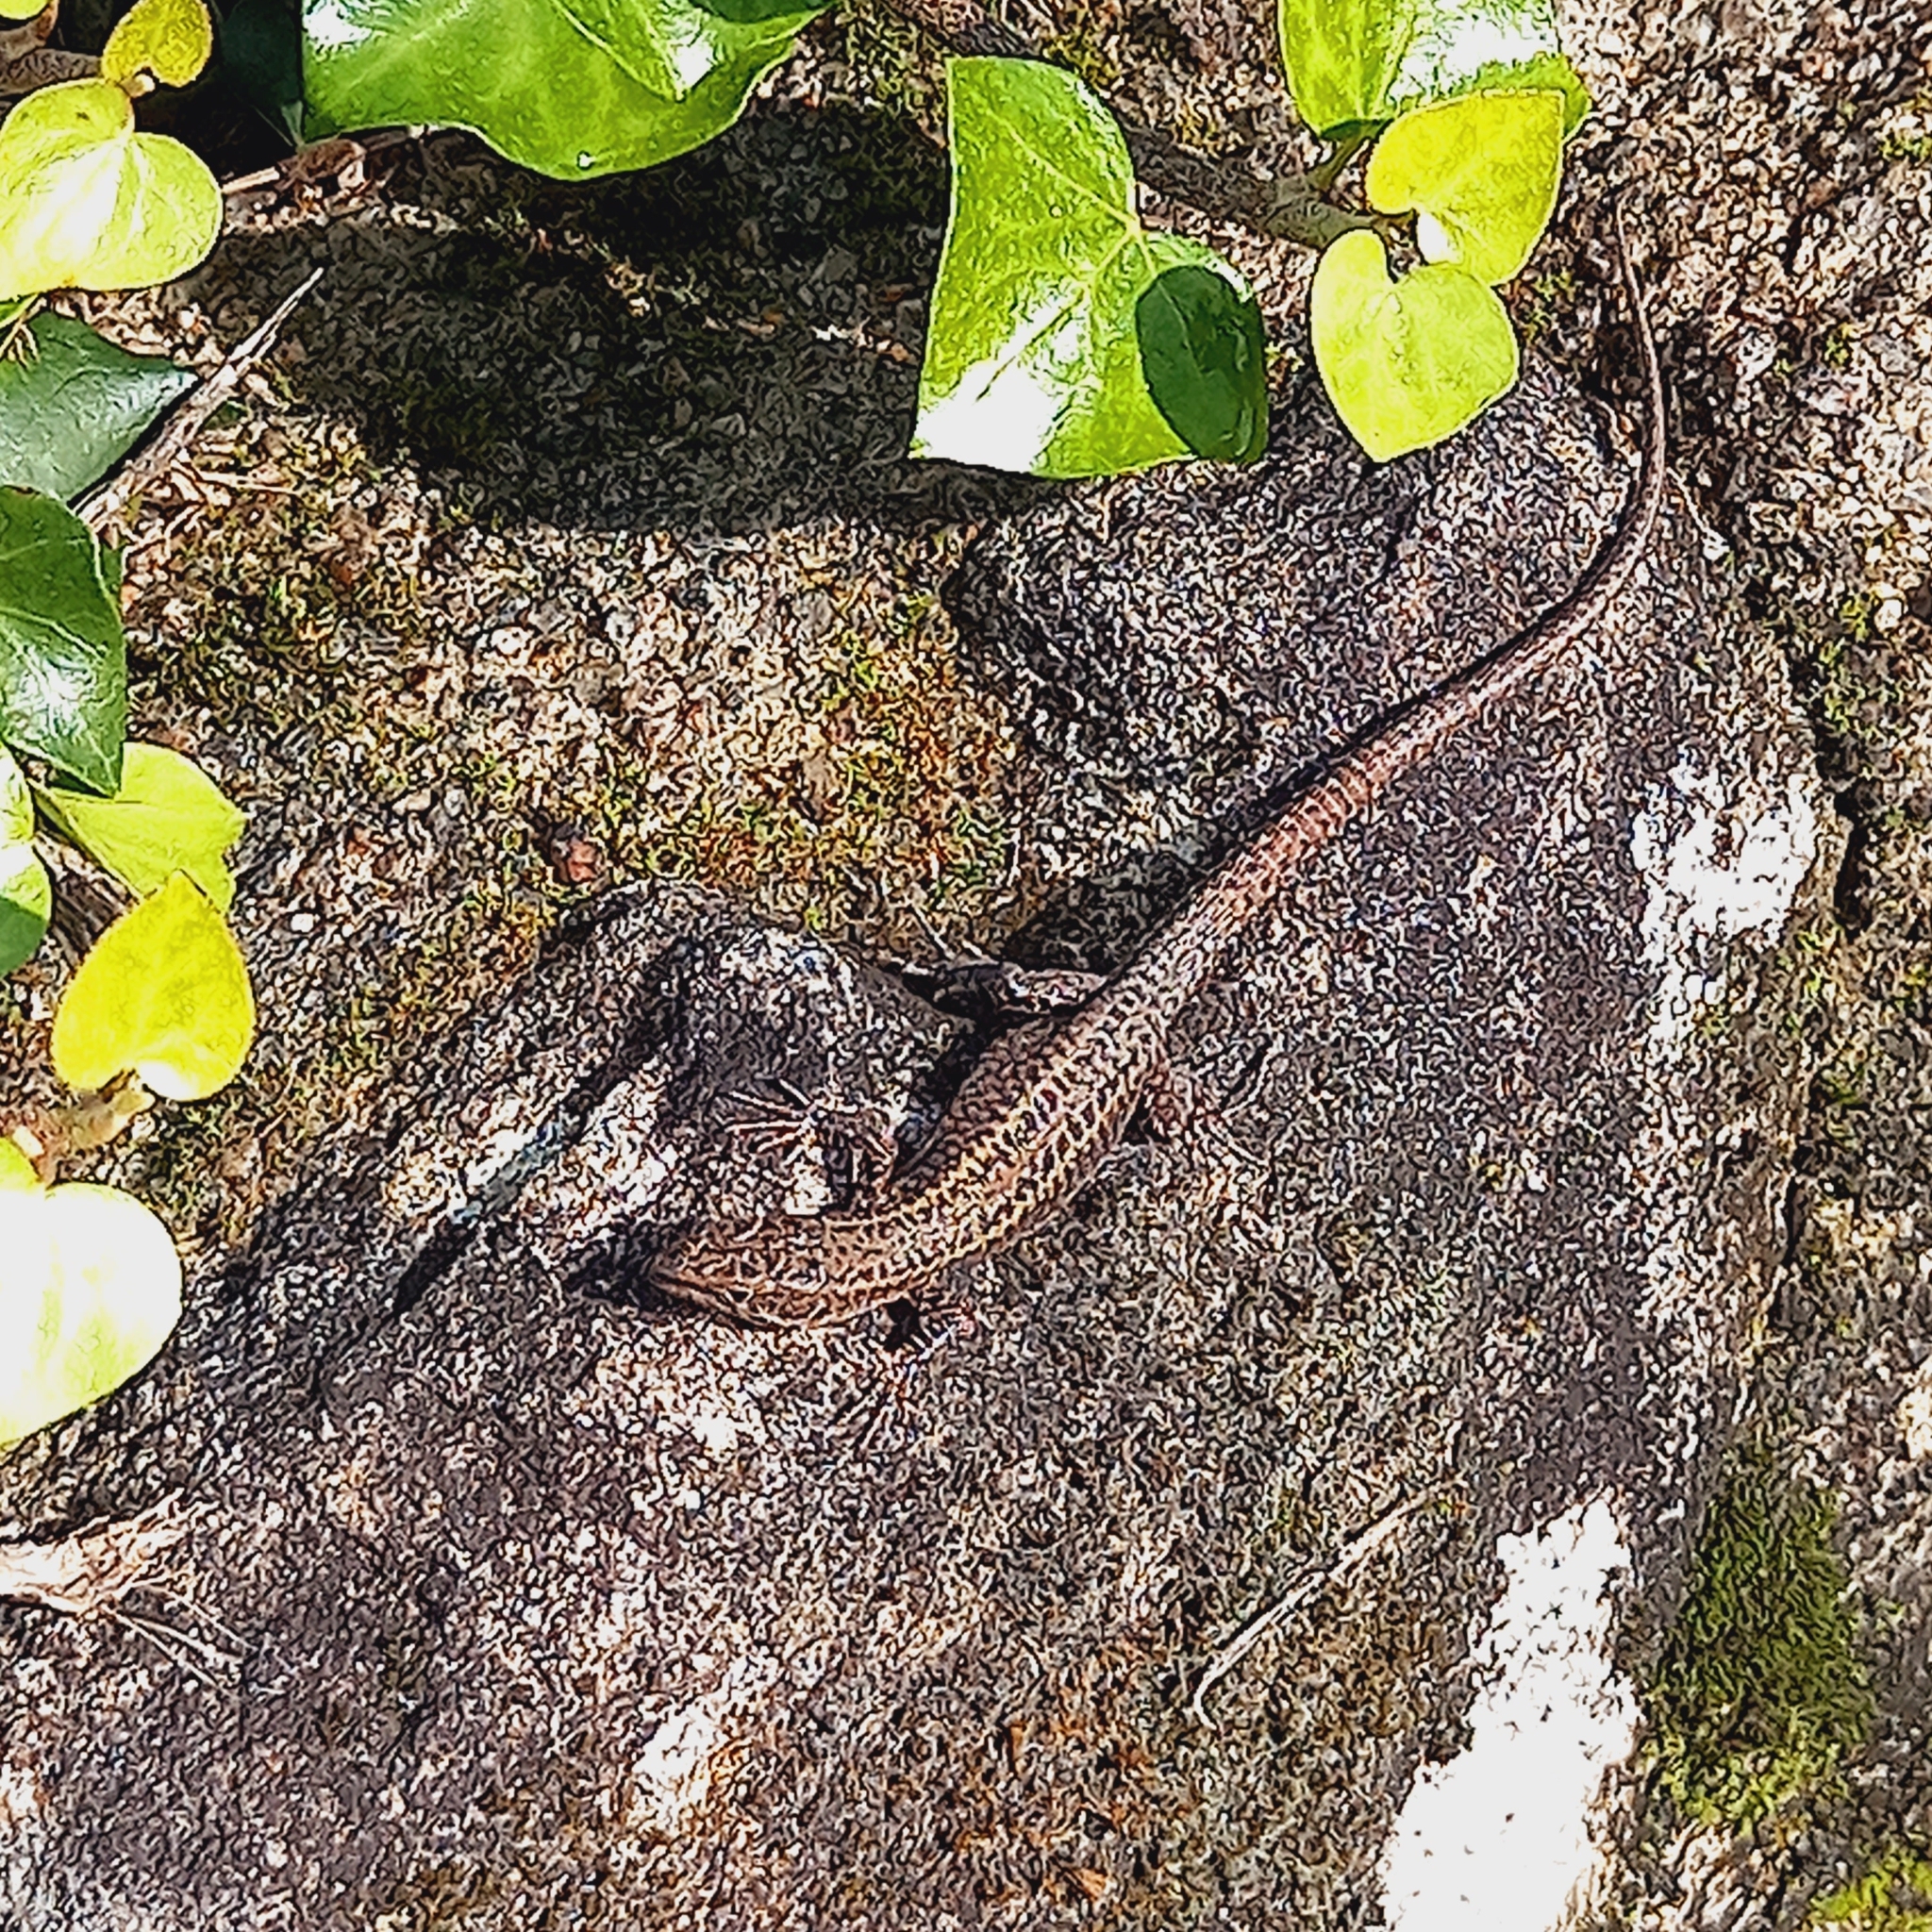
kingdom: Animalia
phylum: Chordata
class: Squamata
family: Lacertidae
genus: Podarcis
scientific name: Podarcis bocagei
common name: Bocage's wall lizard
